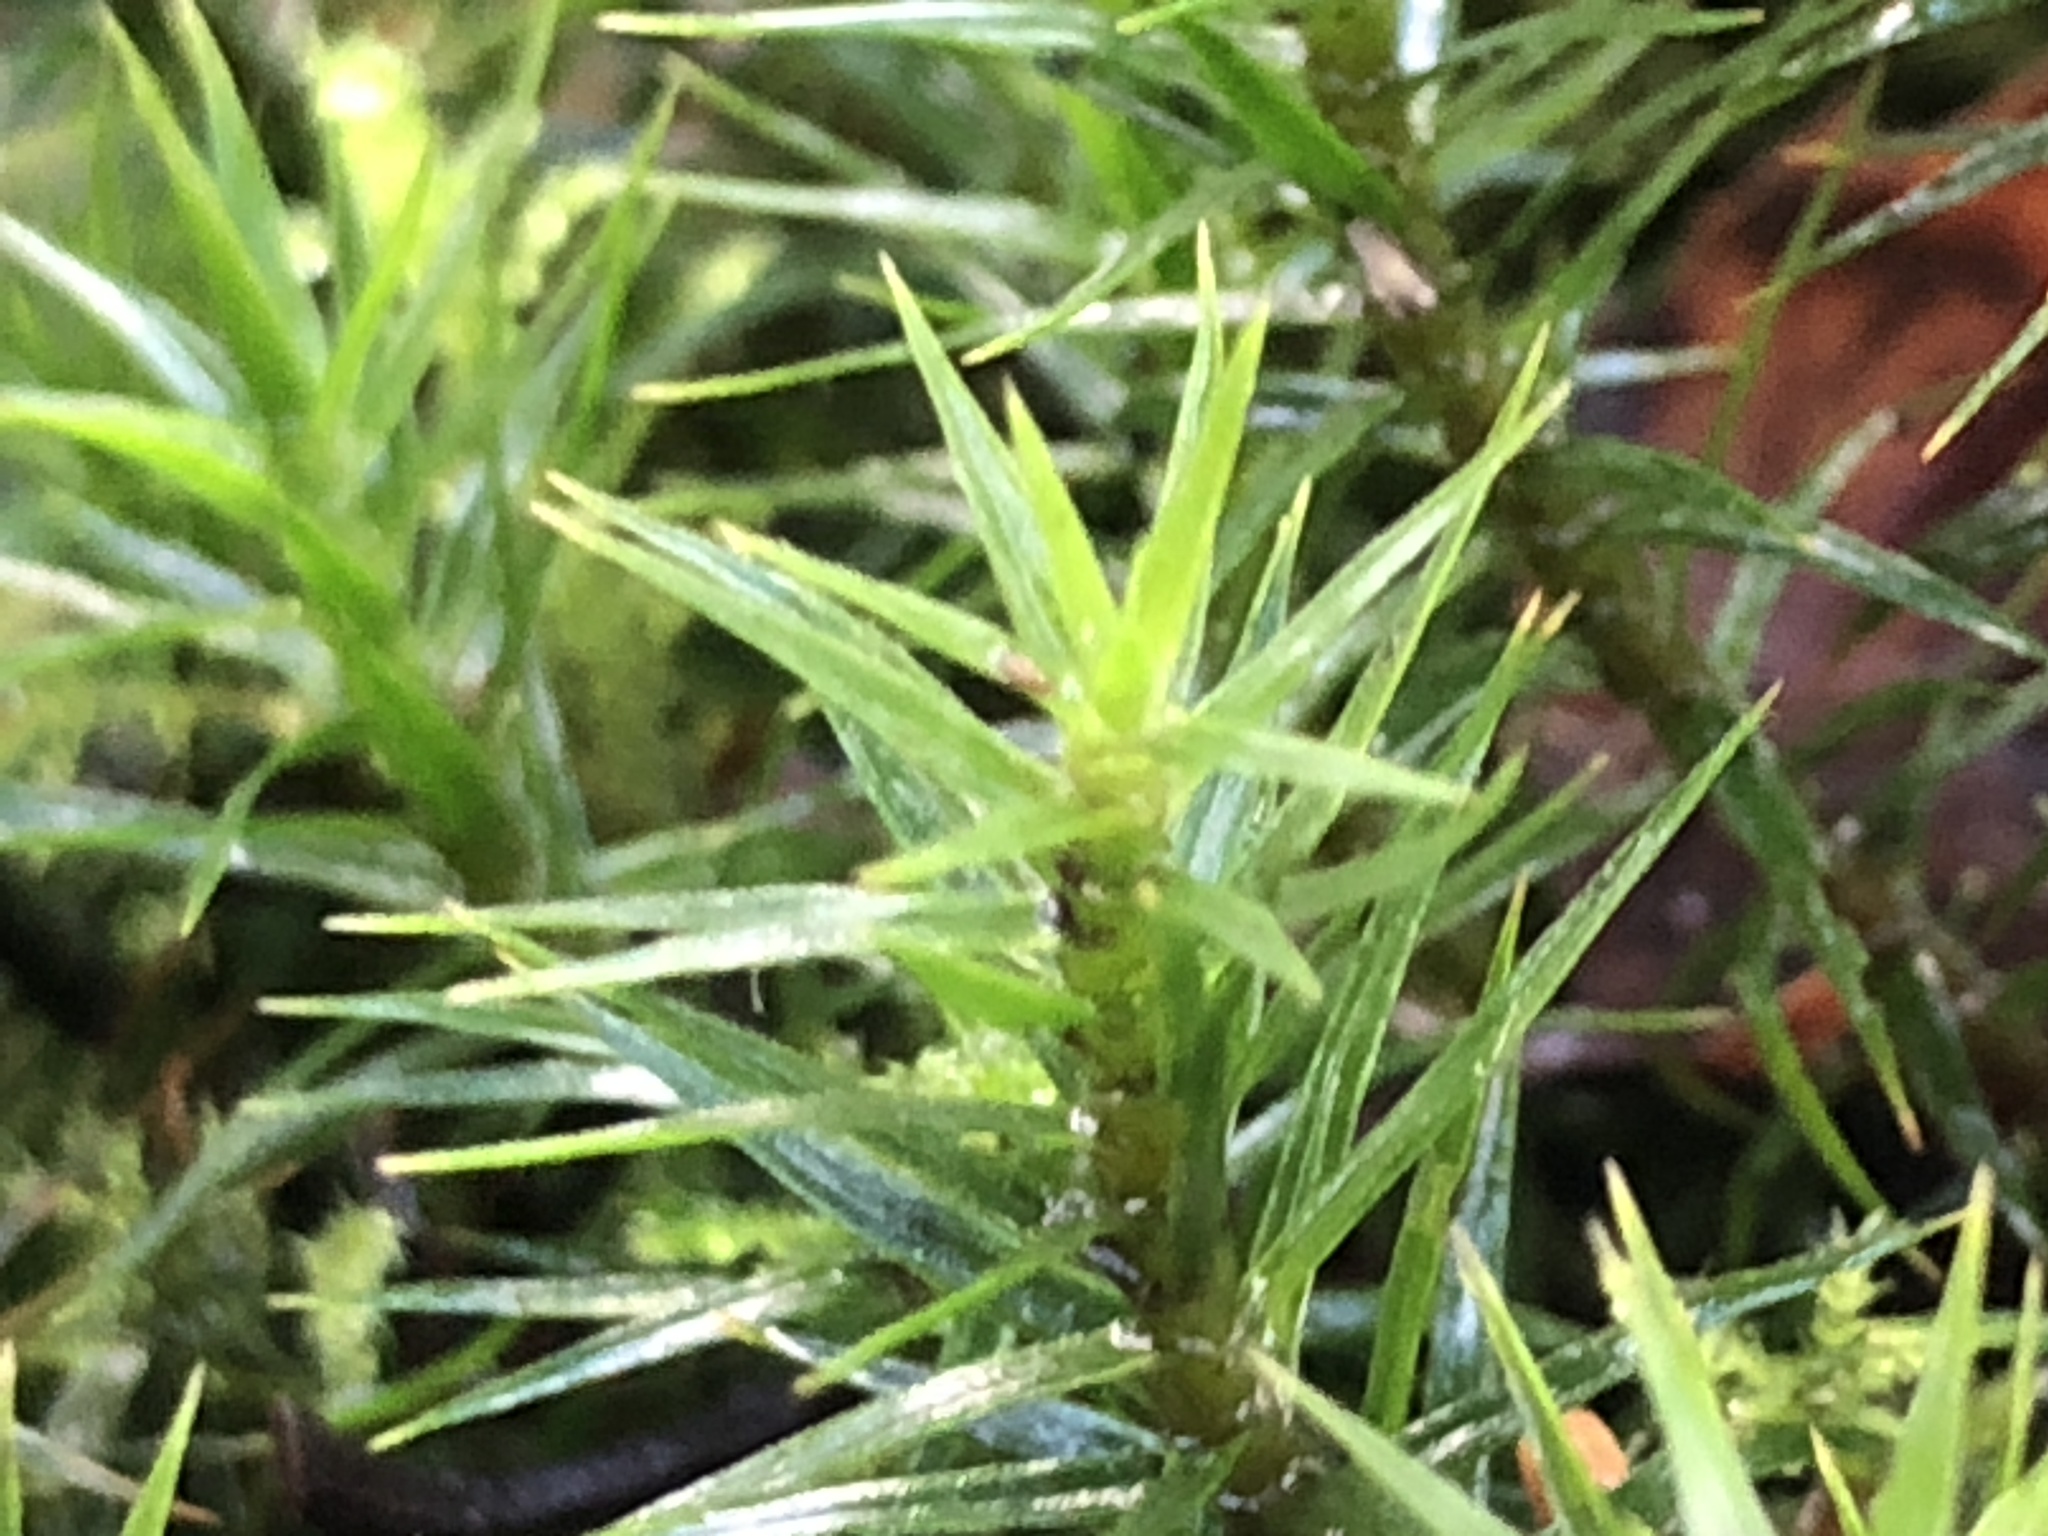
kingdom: Plantae
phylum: Bryophyta
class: Polytrichopsida
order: Polytrichales
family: Polytrichaceae
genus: Polytrichum
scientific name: Polytrichum formosum
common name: Bank haircap moss
